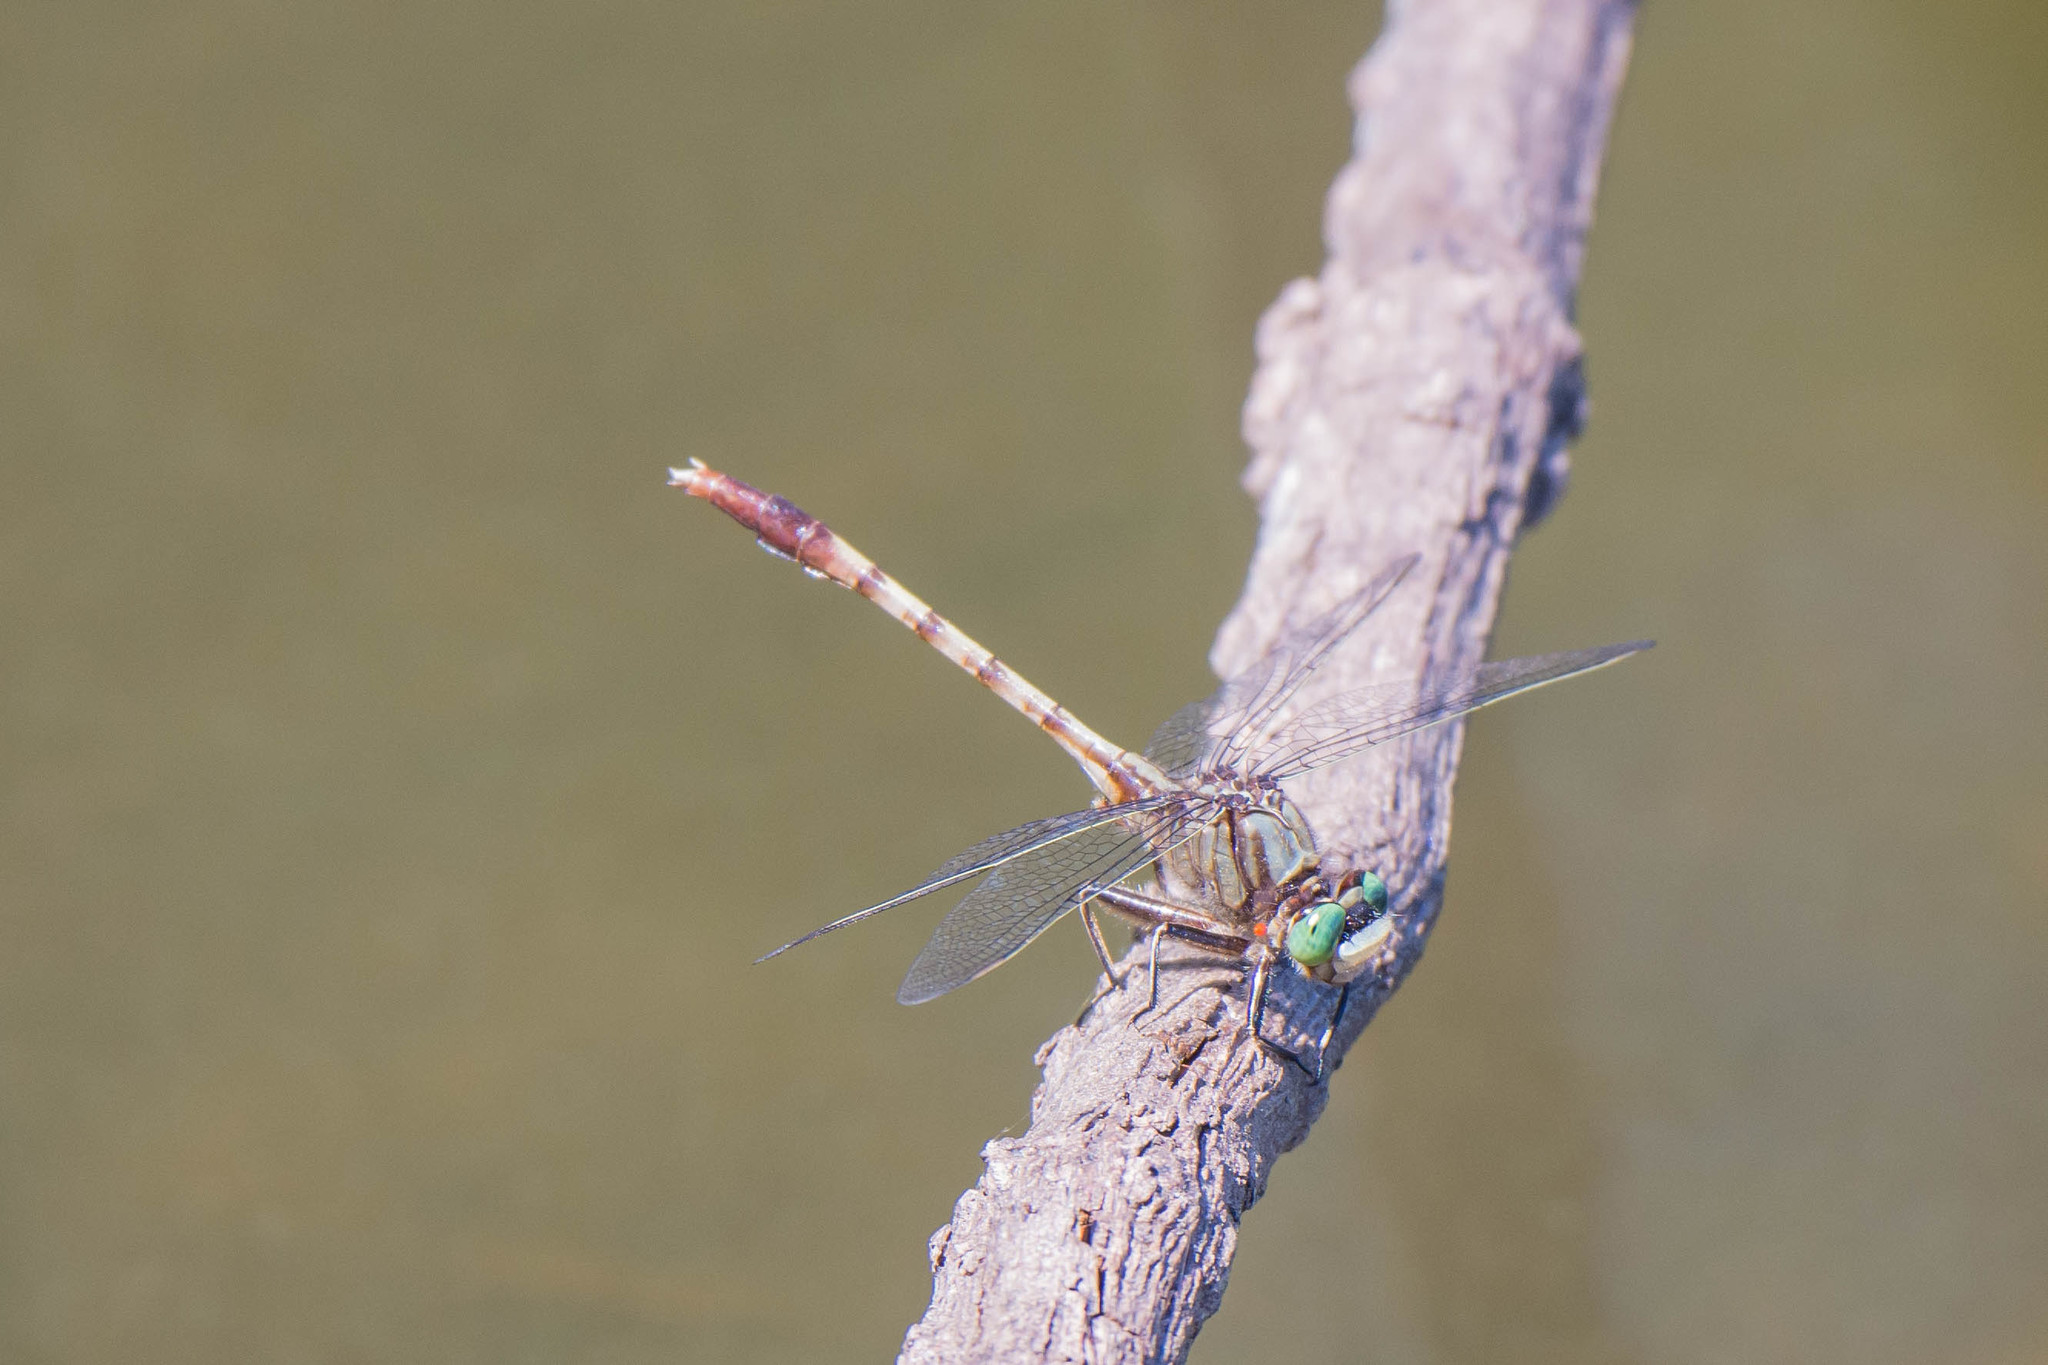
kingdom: Animalia
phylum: Arthropoda
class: Insecta
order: Odonata
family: Gomphidae
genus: Arigomphus
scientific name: Arigomphus pallidus
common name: Gray-green clubtail
